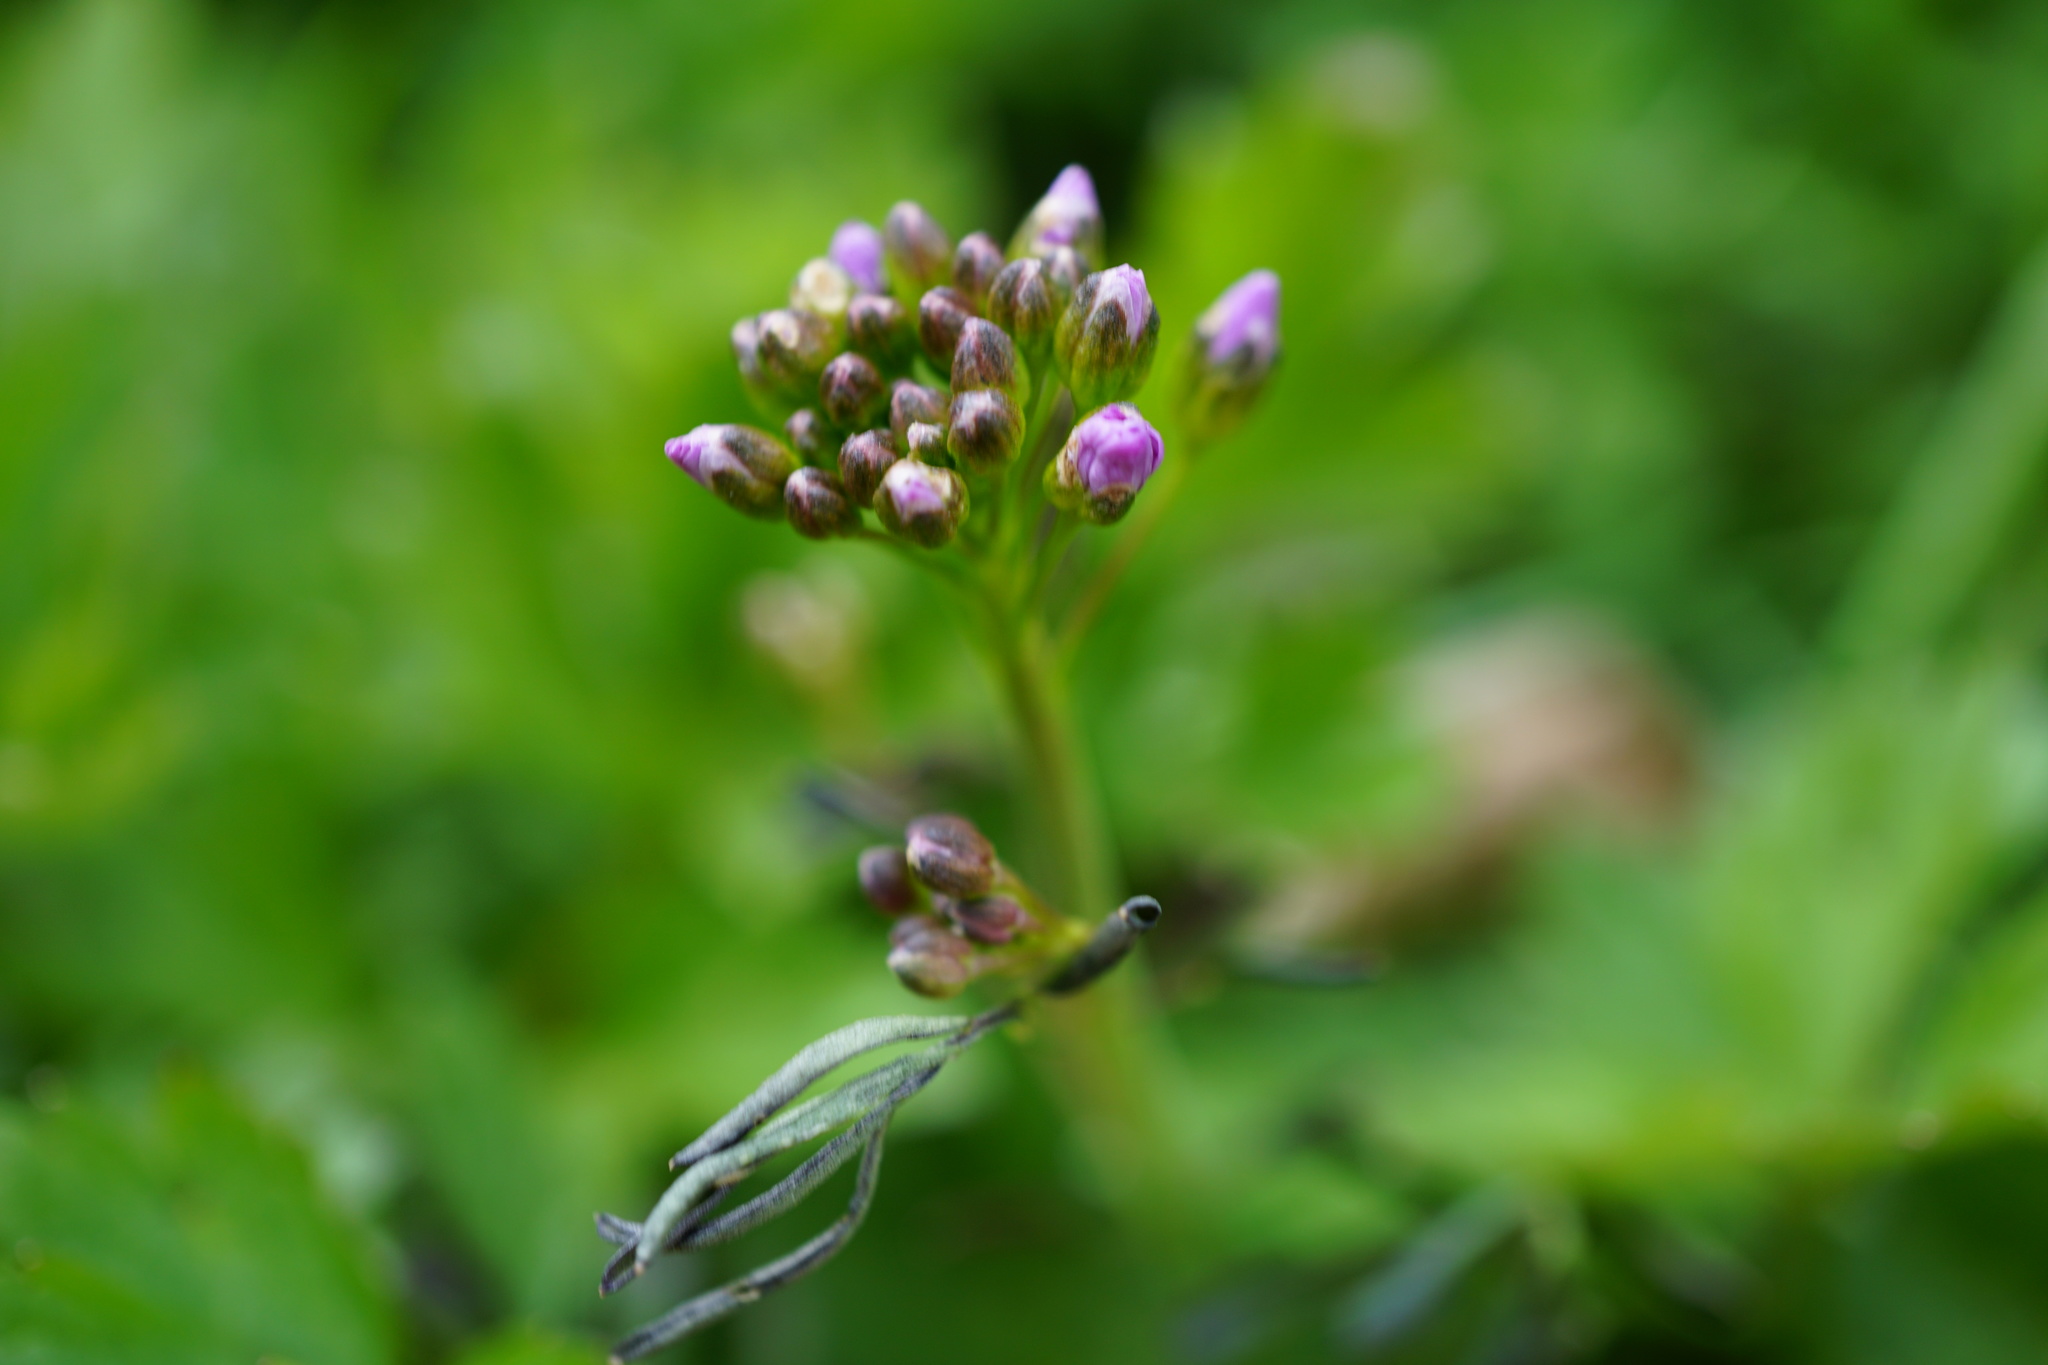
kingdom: Plantae
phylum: Tracheophyta
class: Magnoliopsida
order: Brassicales
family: Brassicaceae
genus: Cardamine
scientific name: Cardamine pratensis
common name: Cuckoo flower
